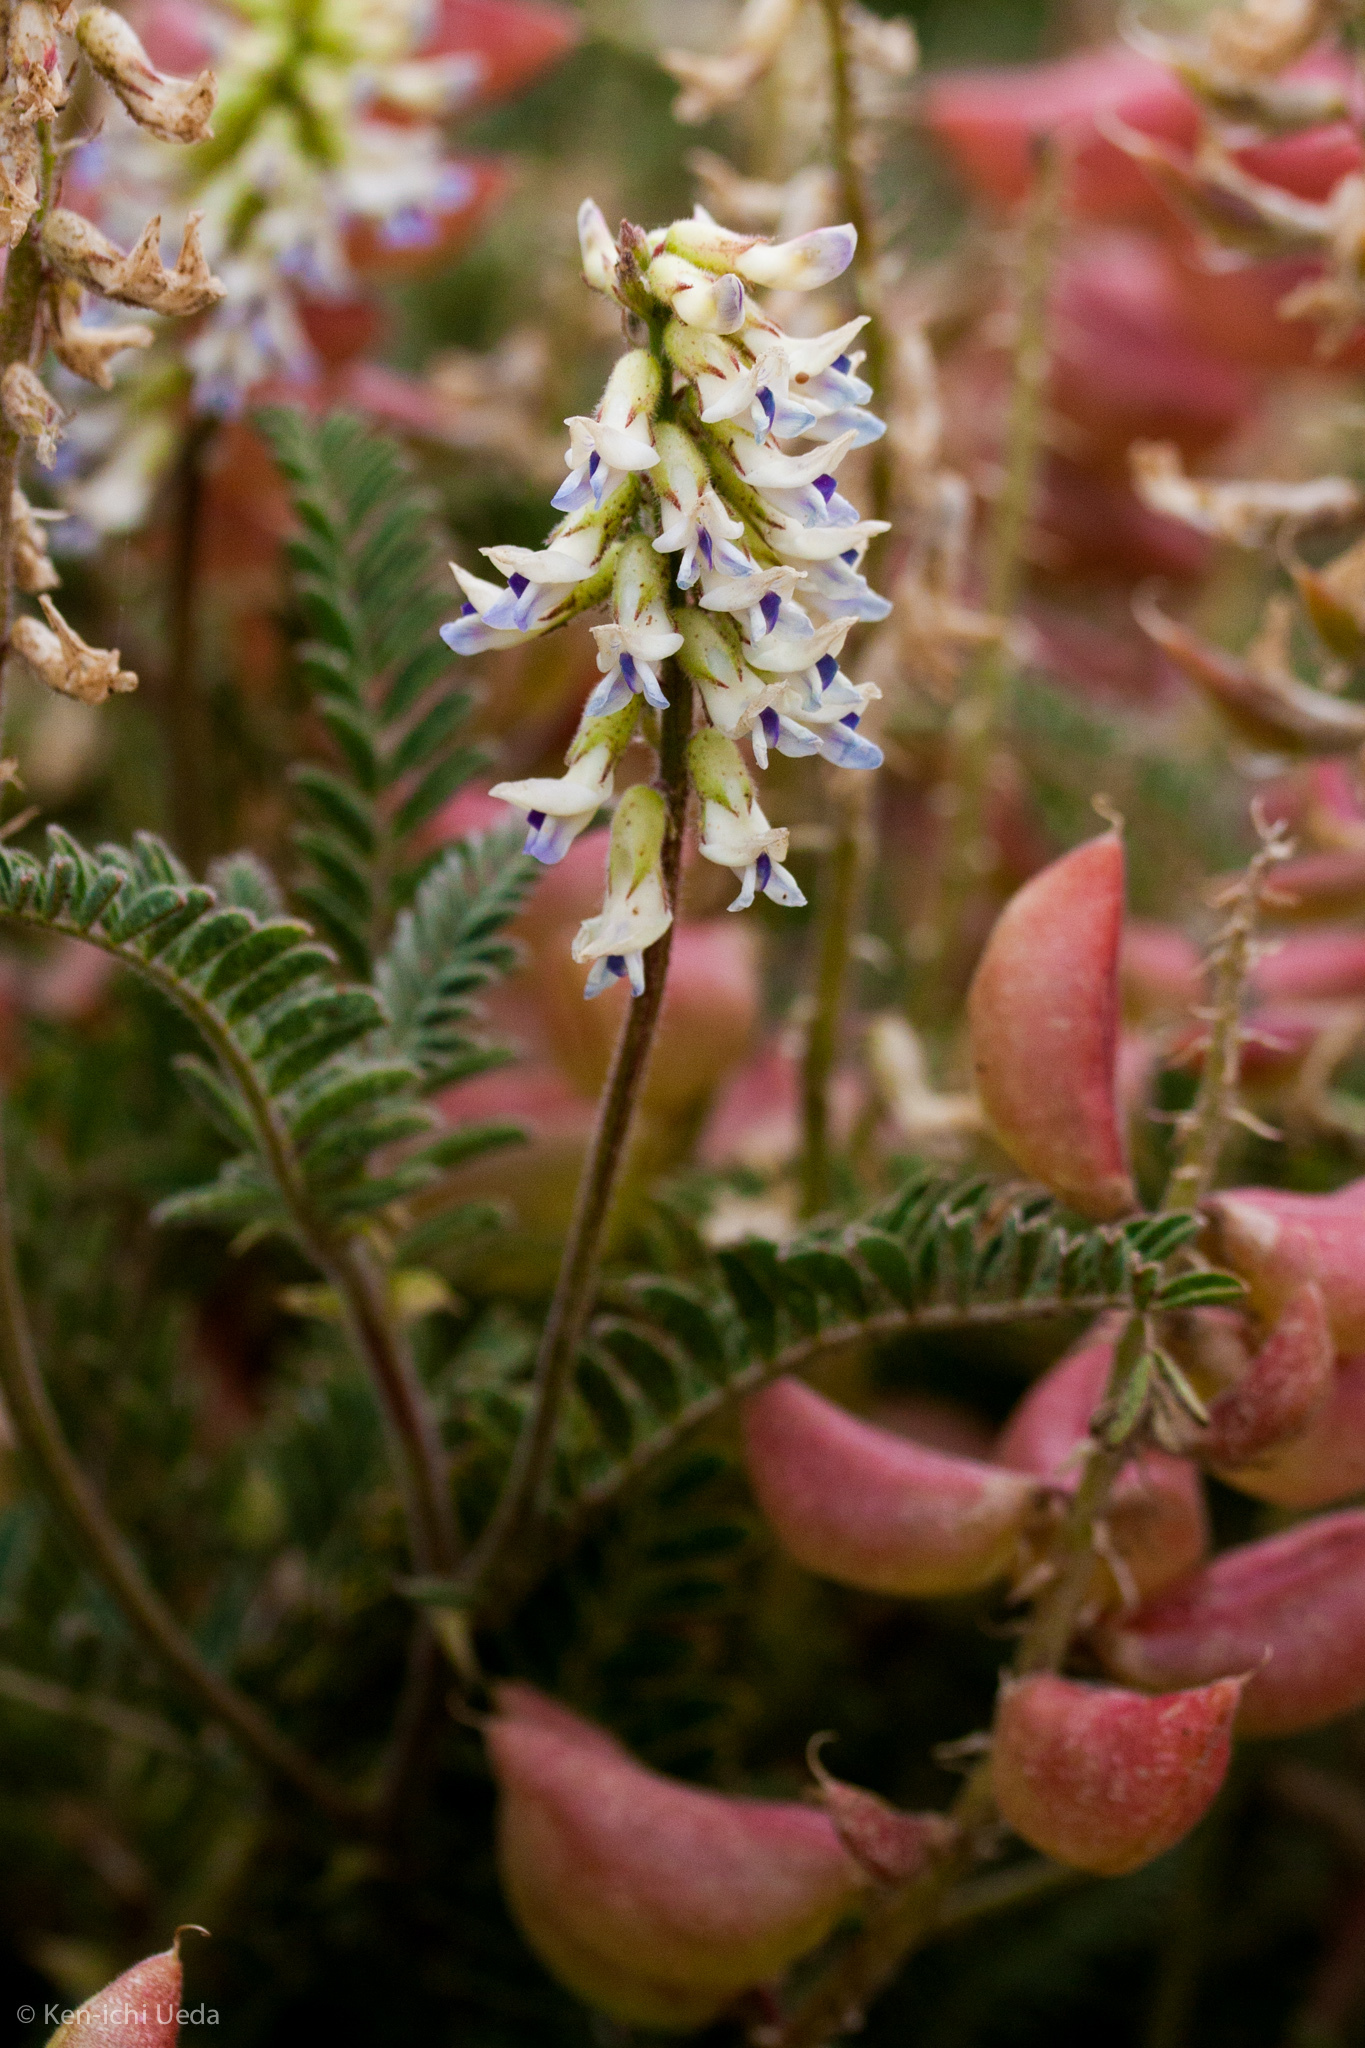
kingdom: Plantae
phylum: Tracheophyta
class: Magnoliopsida
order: Fabales
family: Fabaceae
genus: Astragalus
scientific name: Astragalus nuttallii
